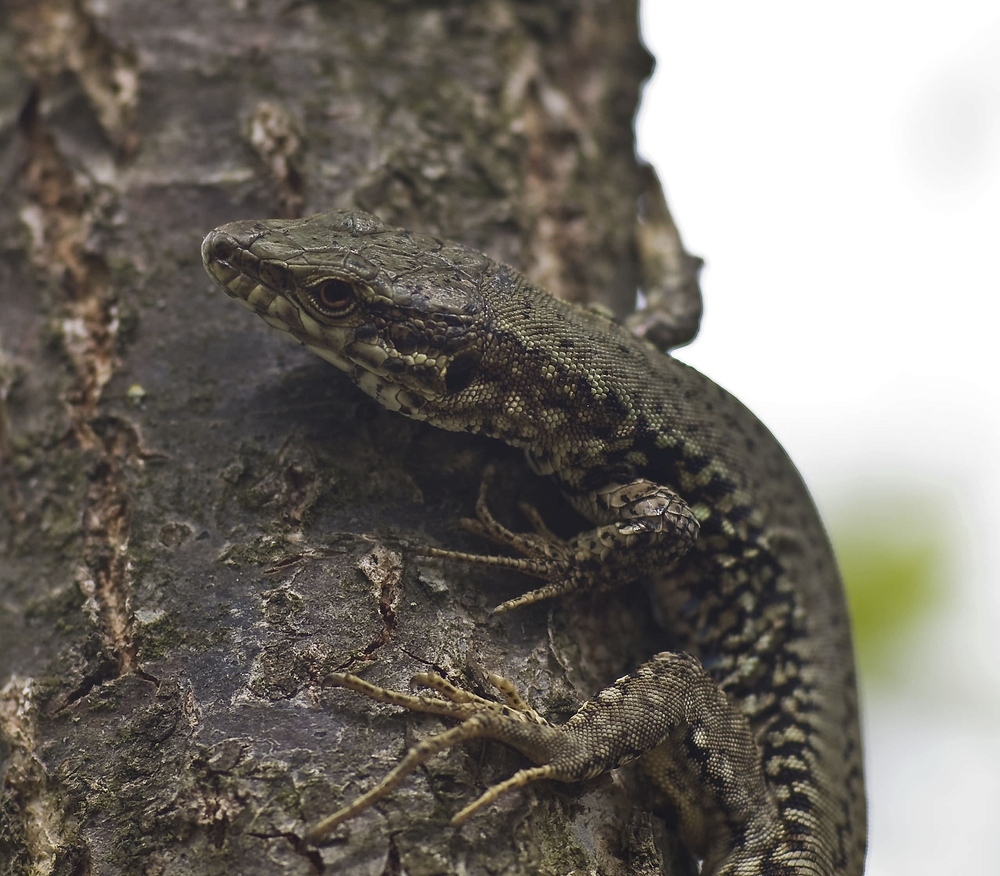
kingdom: Animalia
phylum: Chordata
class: Squamata
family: Lacertidae
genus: Podarcis
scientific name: Podarcis muralis
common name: Common wall lizard
